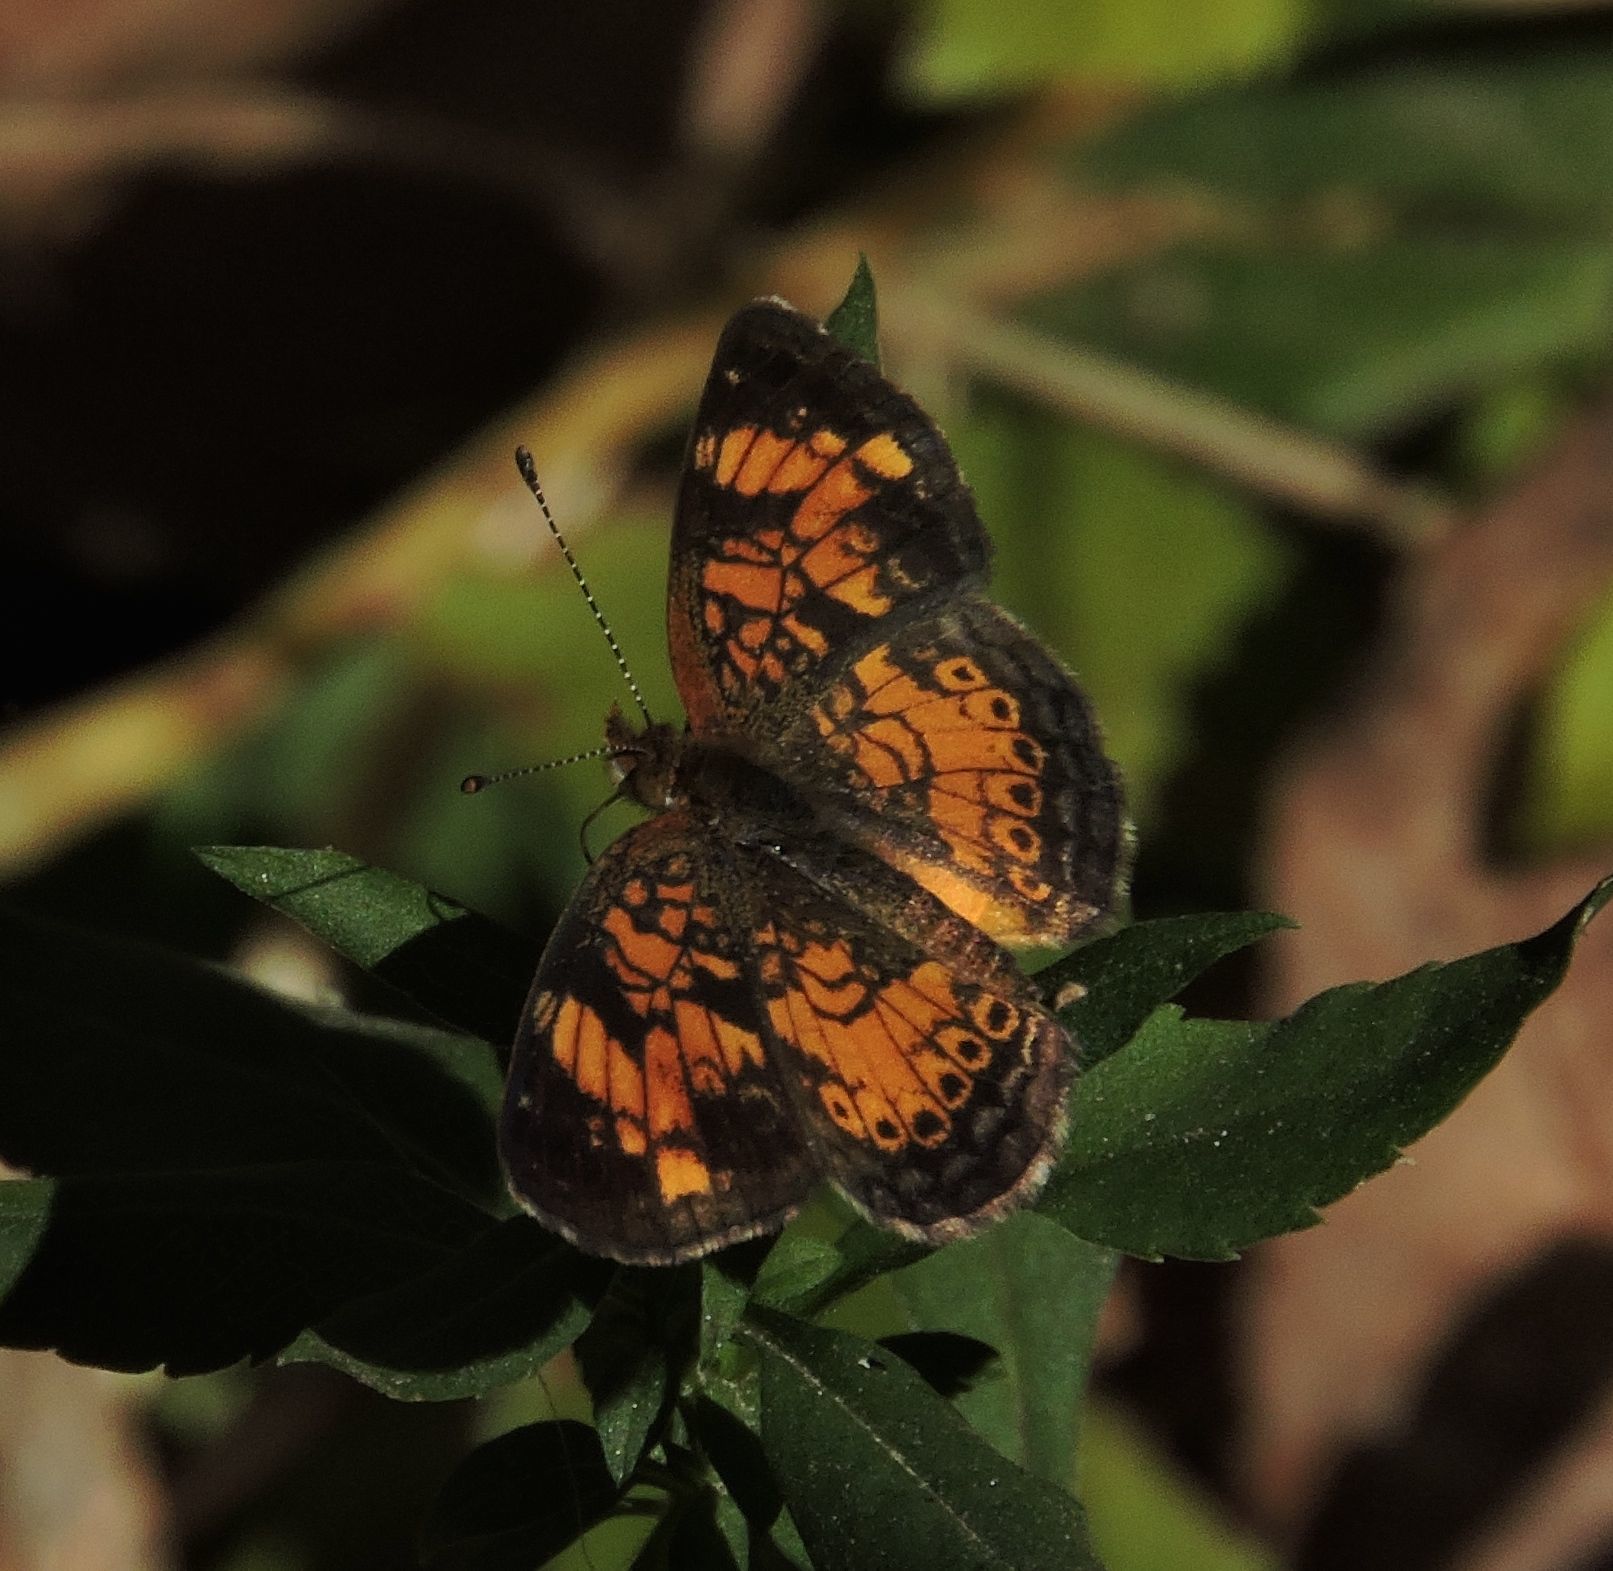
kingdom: Animalia
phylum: Arthropoda
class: Insecta
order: Lepidoptera
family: Nymphalidae
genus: Phyciodes
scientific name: Phyciodes tharos
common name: Pearl crescent
